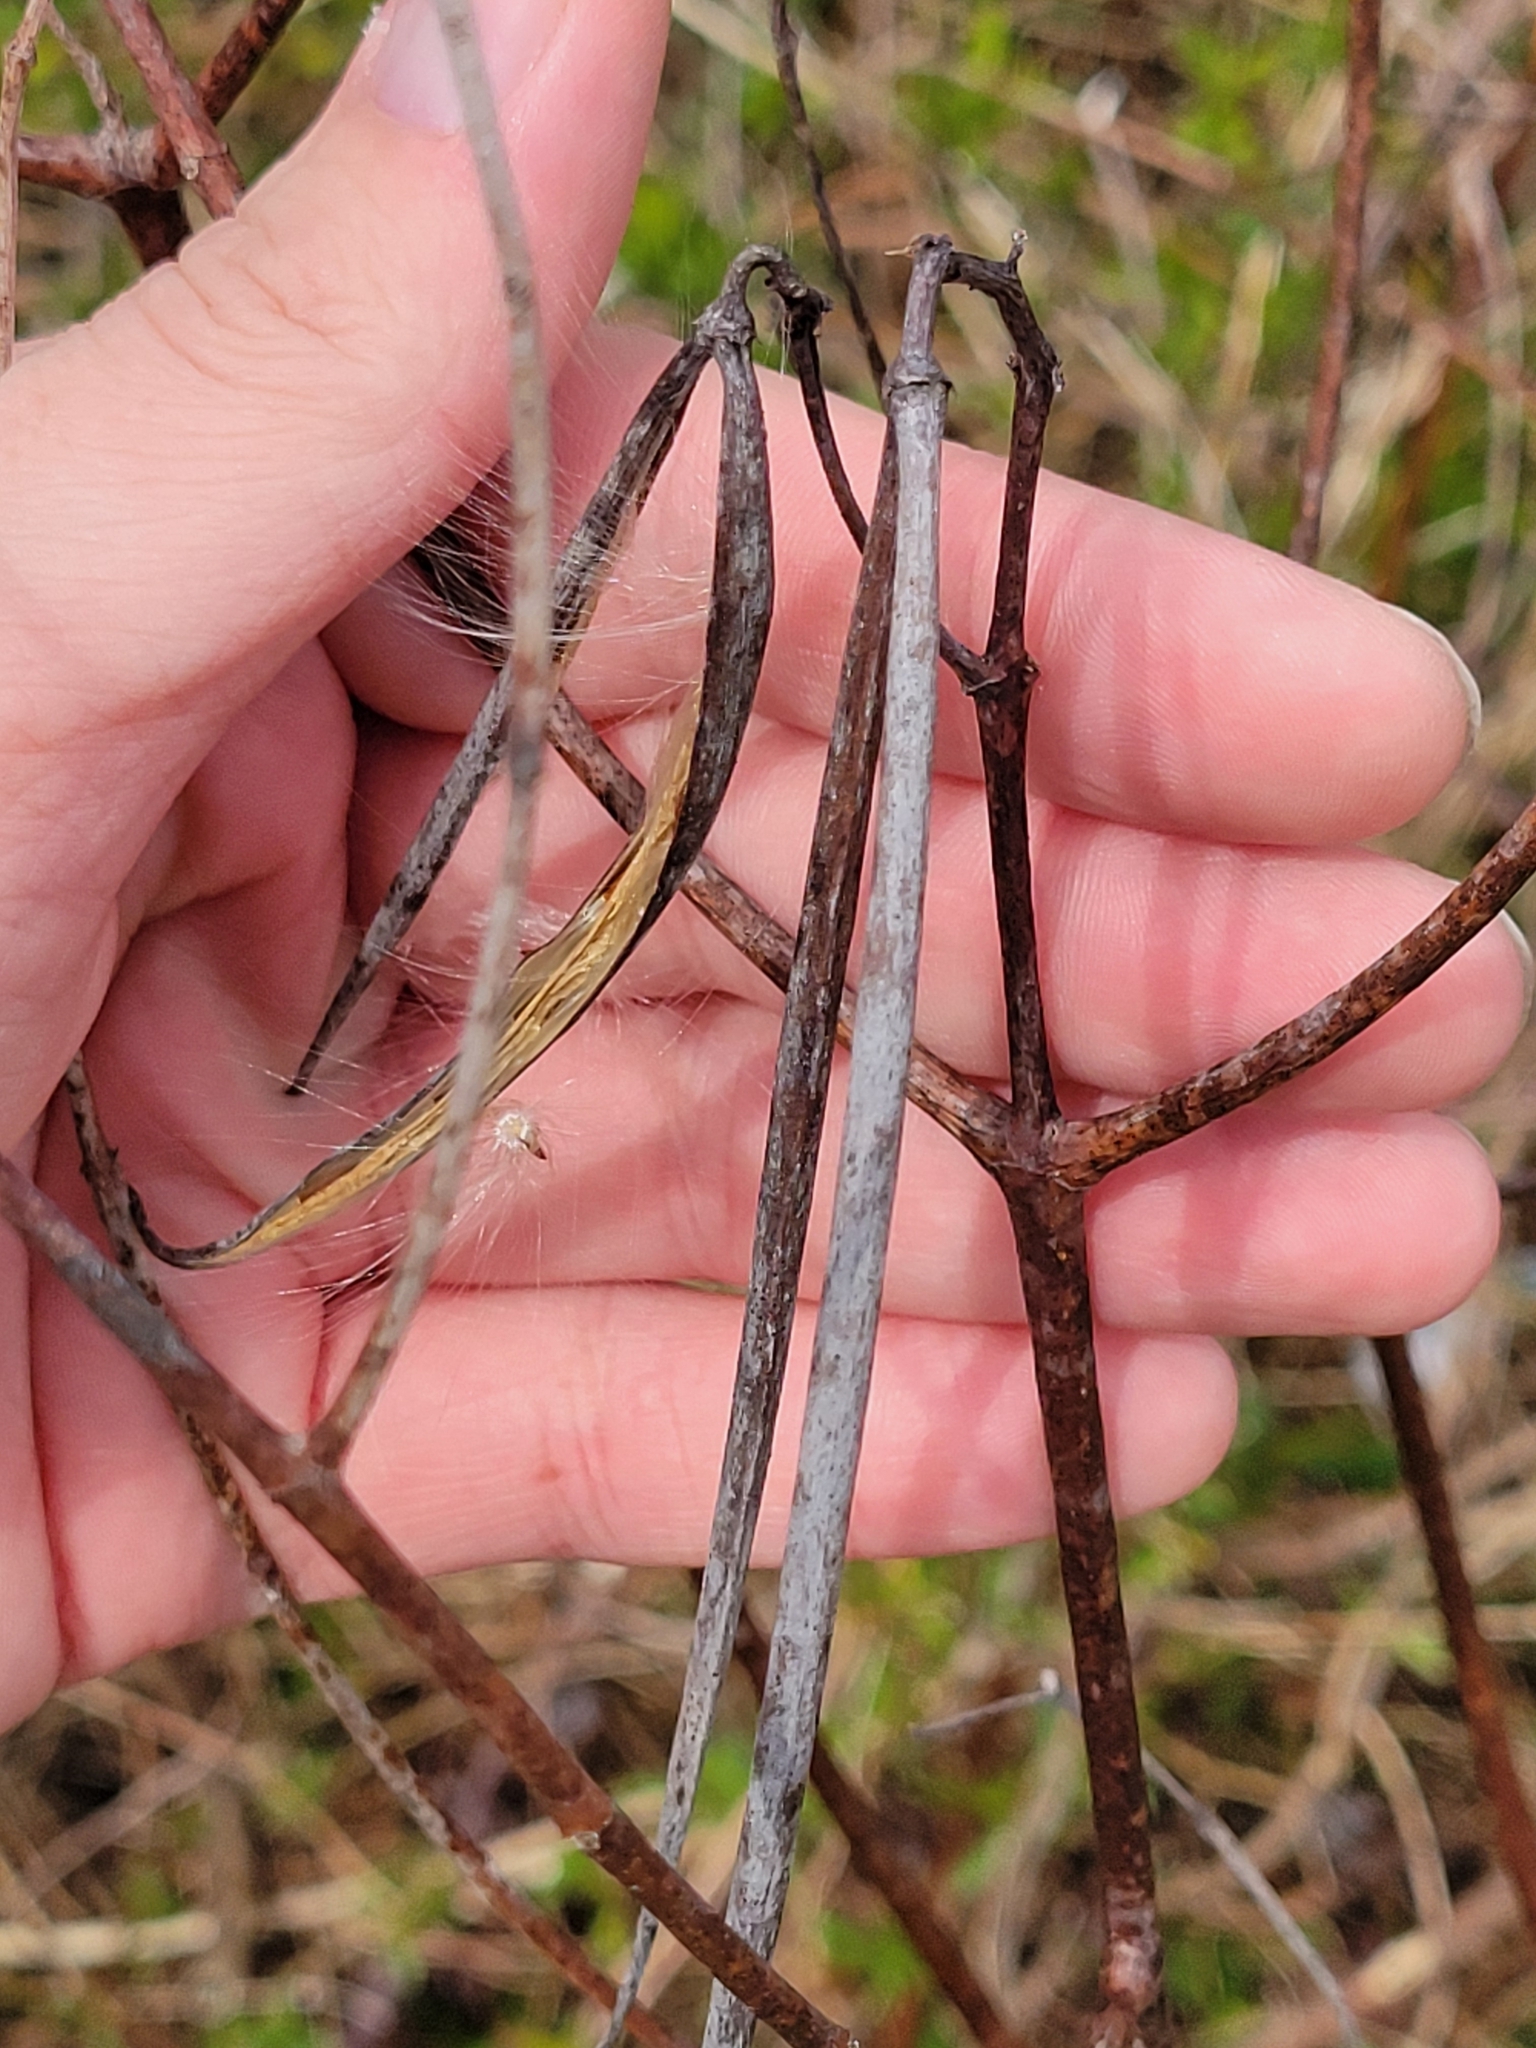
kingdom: Plantae
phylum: Tracheophyta
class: Magnoliopsida
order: Gentianales
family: Apocynaceae
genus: Apocynum
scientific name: Apocynum cannabinum
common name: Hemp dogbane
